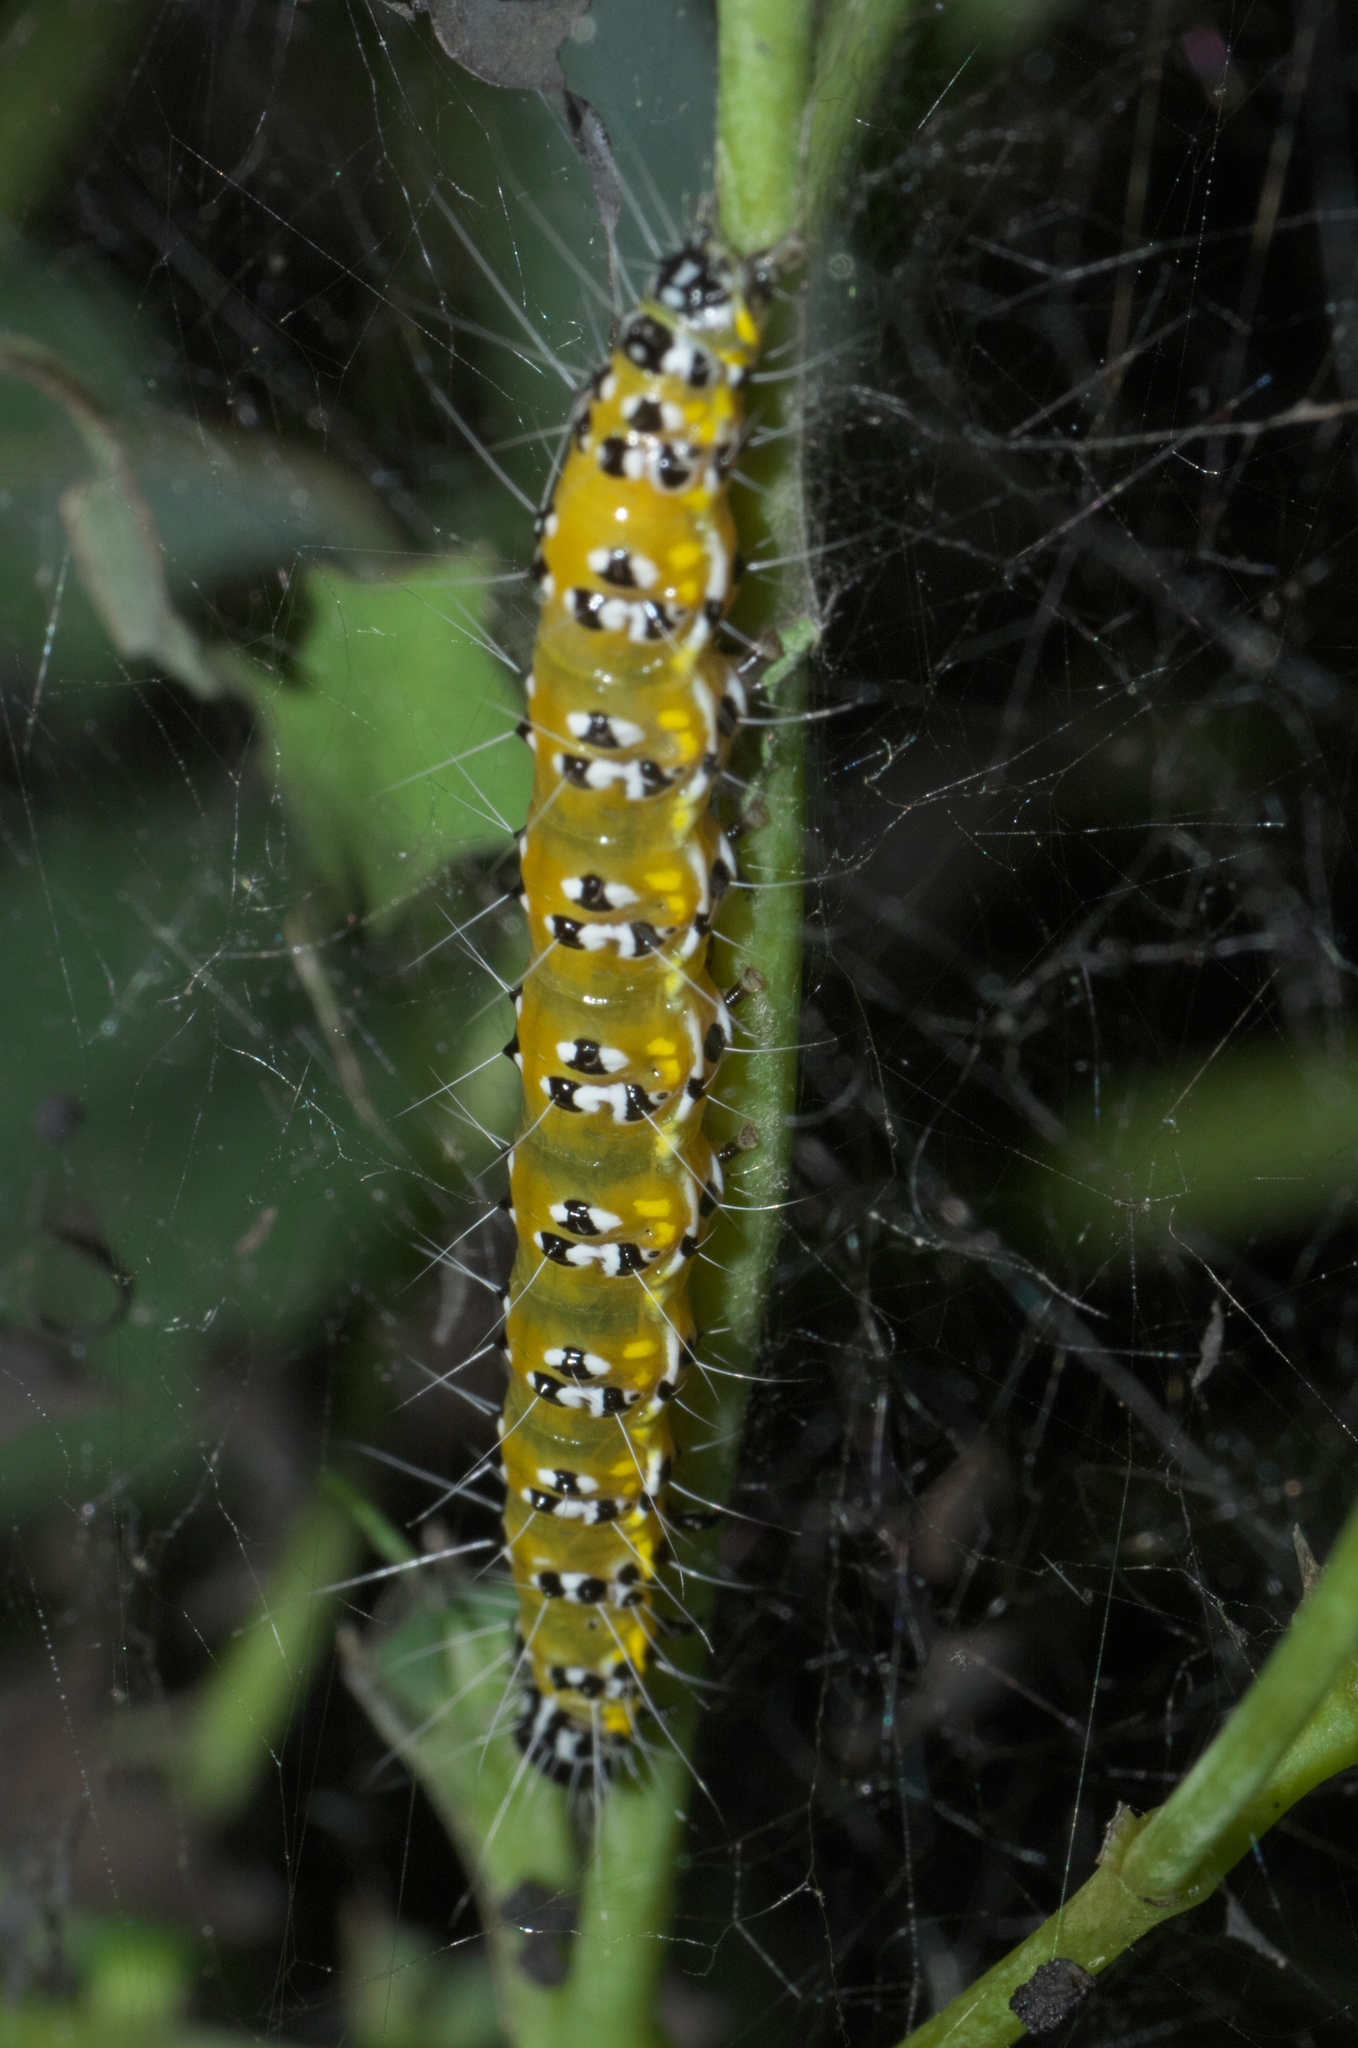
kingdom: Animalia
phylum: Arthropoda
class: Insecta
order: Lepidoptera
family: Crambidae
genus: Uresiphita
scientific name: Uresiphita reversalis
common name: Genista broom moth
